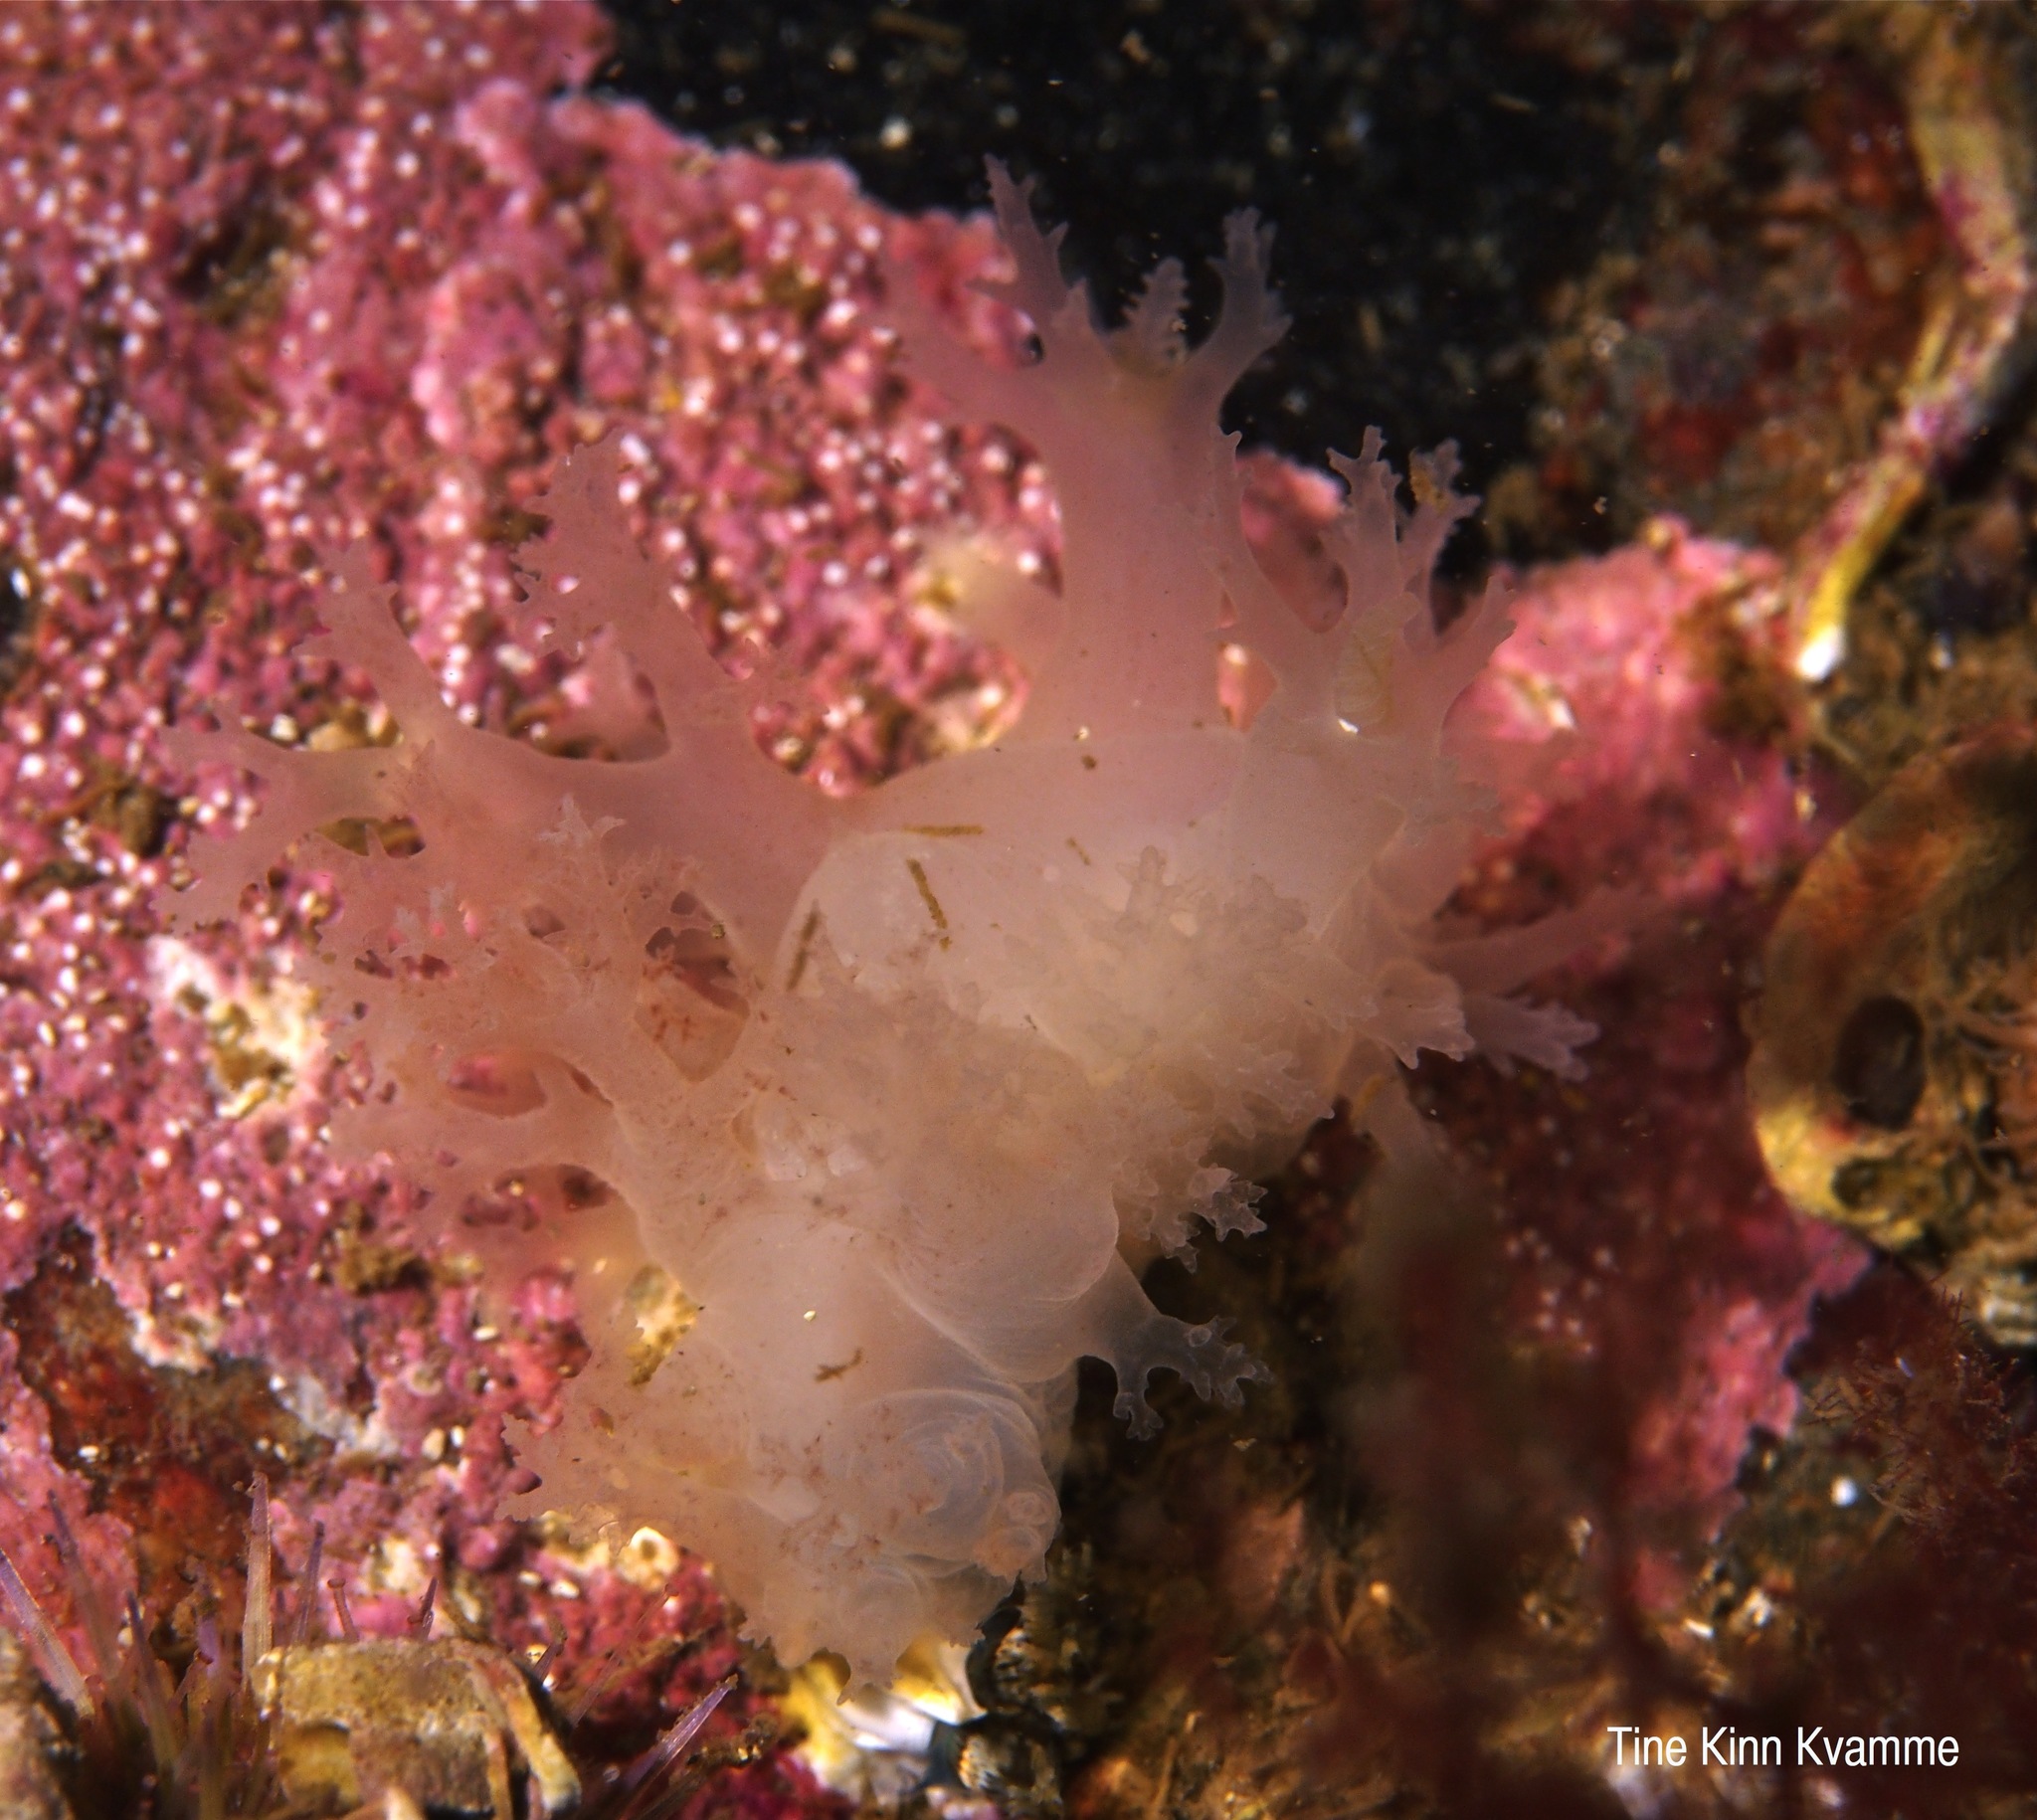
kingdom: Animalia
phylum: Mollusca
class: Gastropoda
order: Nudibranchia
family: Dendronotidae
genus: Dendronotus
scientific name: Dendronotus lacteus
